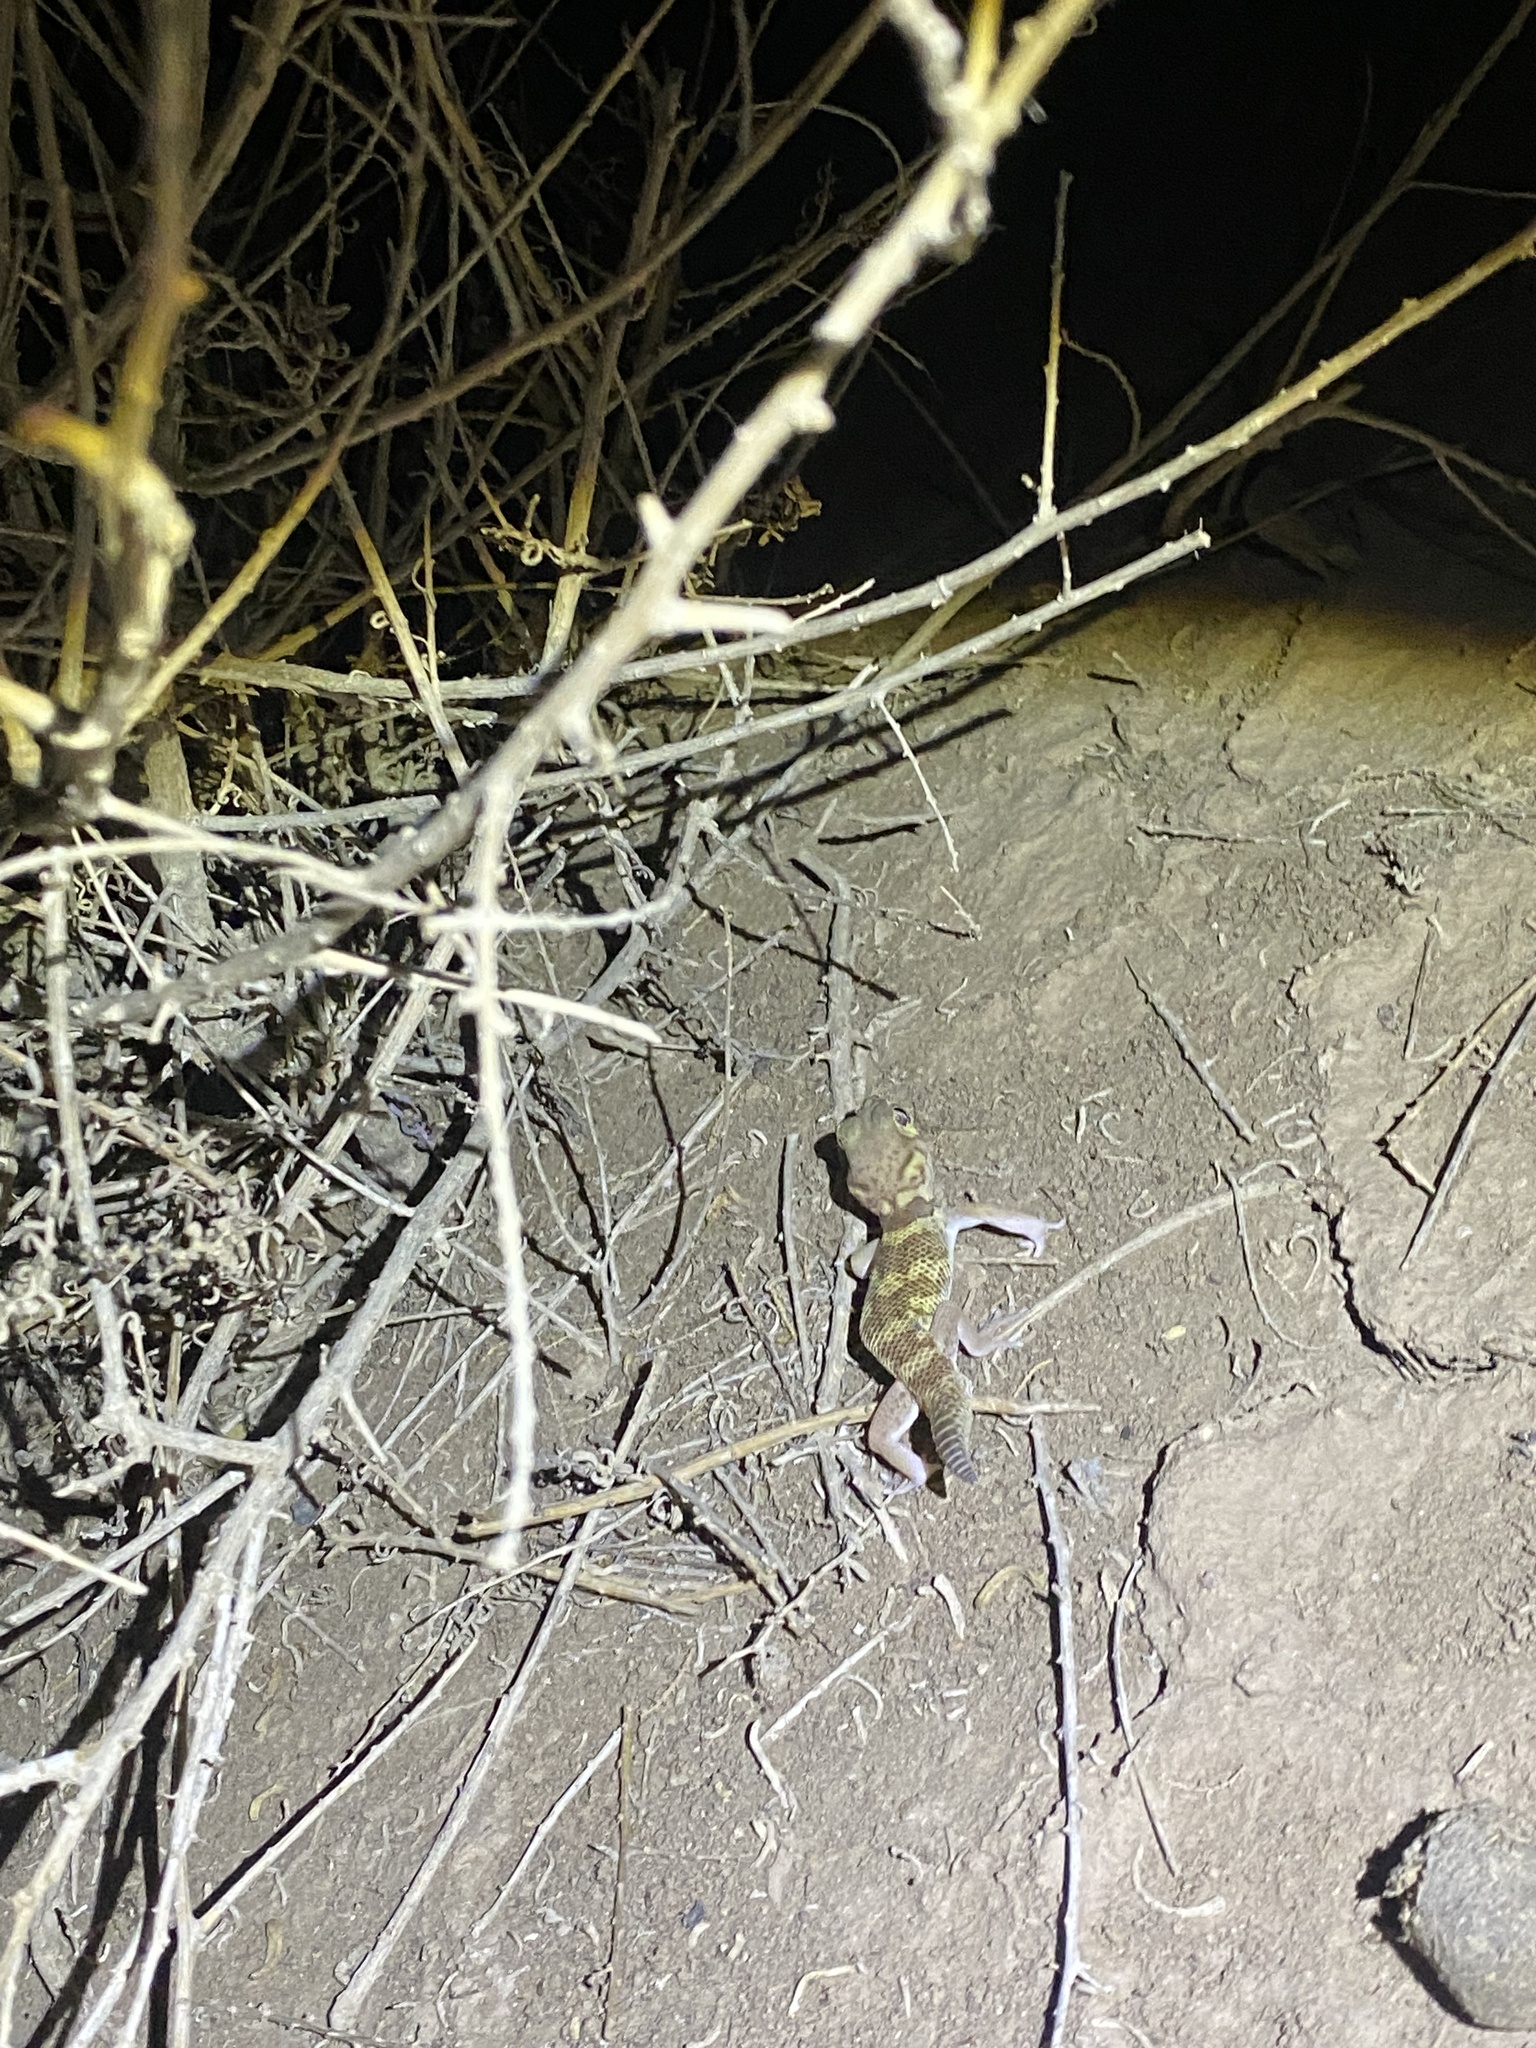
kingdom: Animalia
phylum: Chordata
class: Squamata
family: Sphaerodactylidae
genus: Teratoscincus
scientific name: Teratoscincus bedriagai
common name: Bedriaga's plate-tailed gecko
